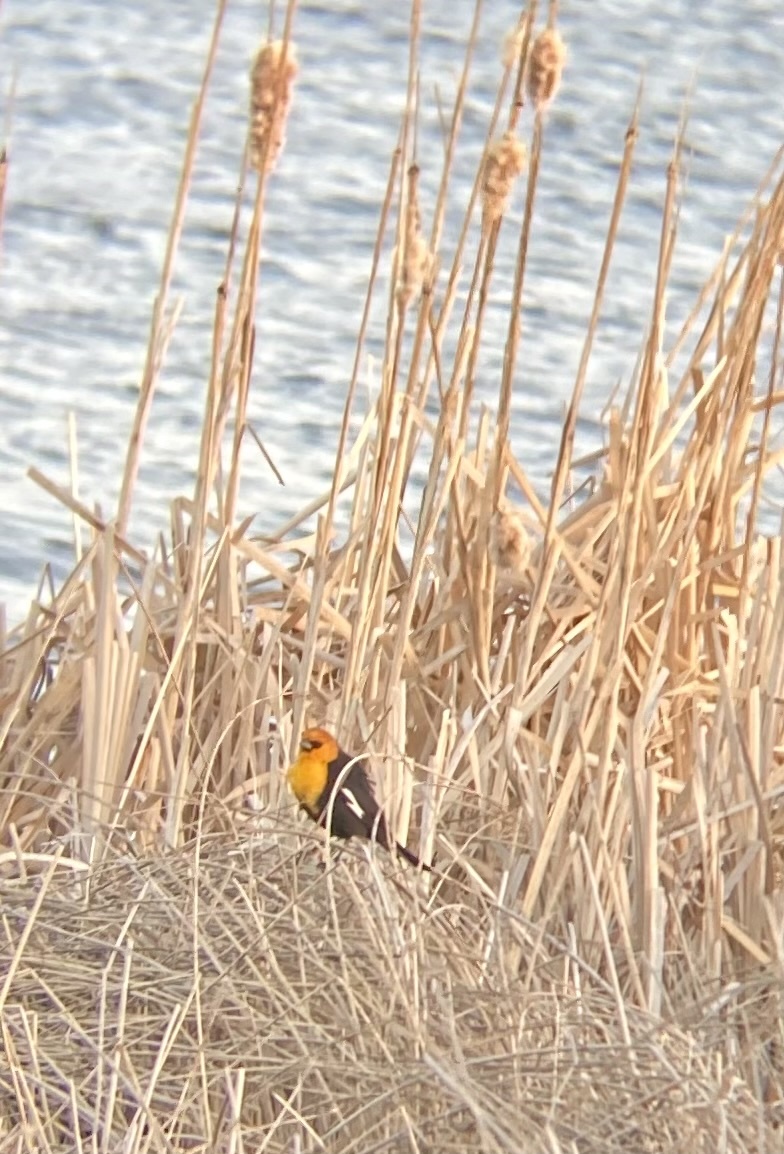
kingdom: Animalia
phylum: Chordata
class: Aves
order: Passeriformes
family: Icteridae
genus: Xanthocephalus
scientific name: Xanthocephalus xanthocephalus
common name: Yellow-headed blackbird
